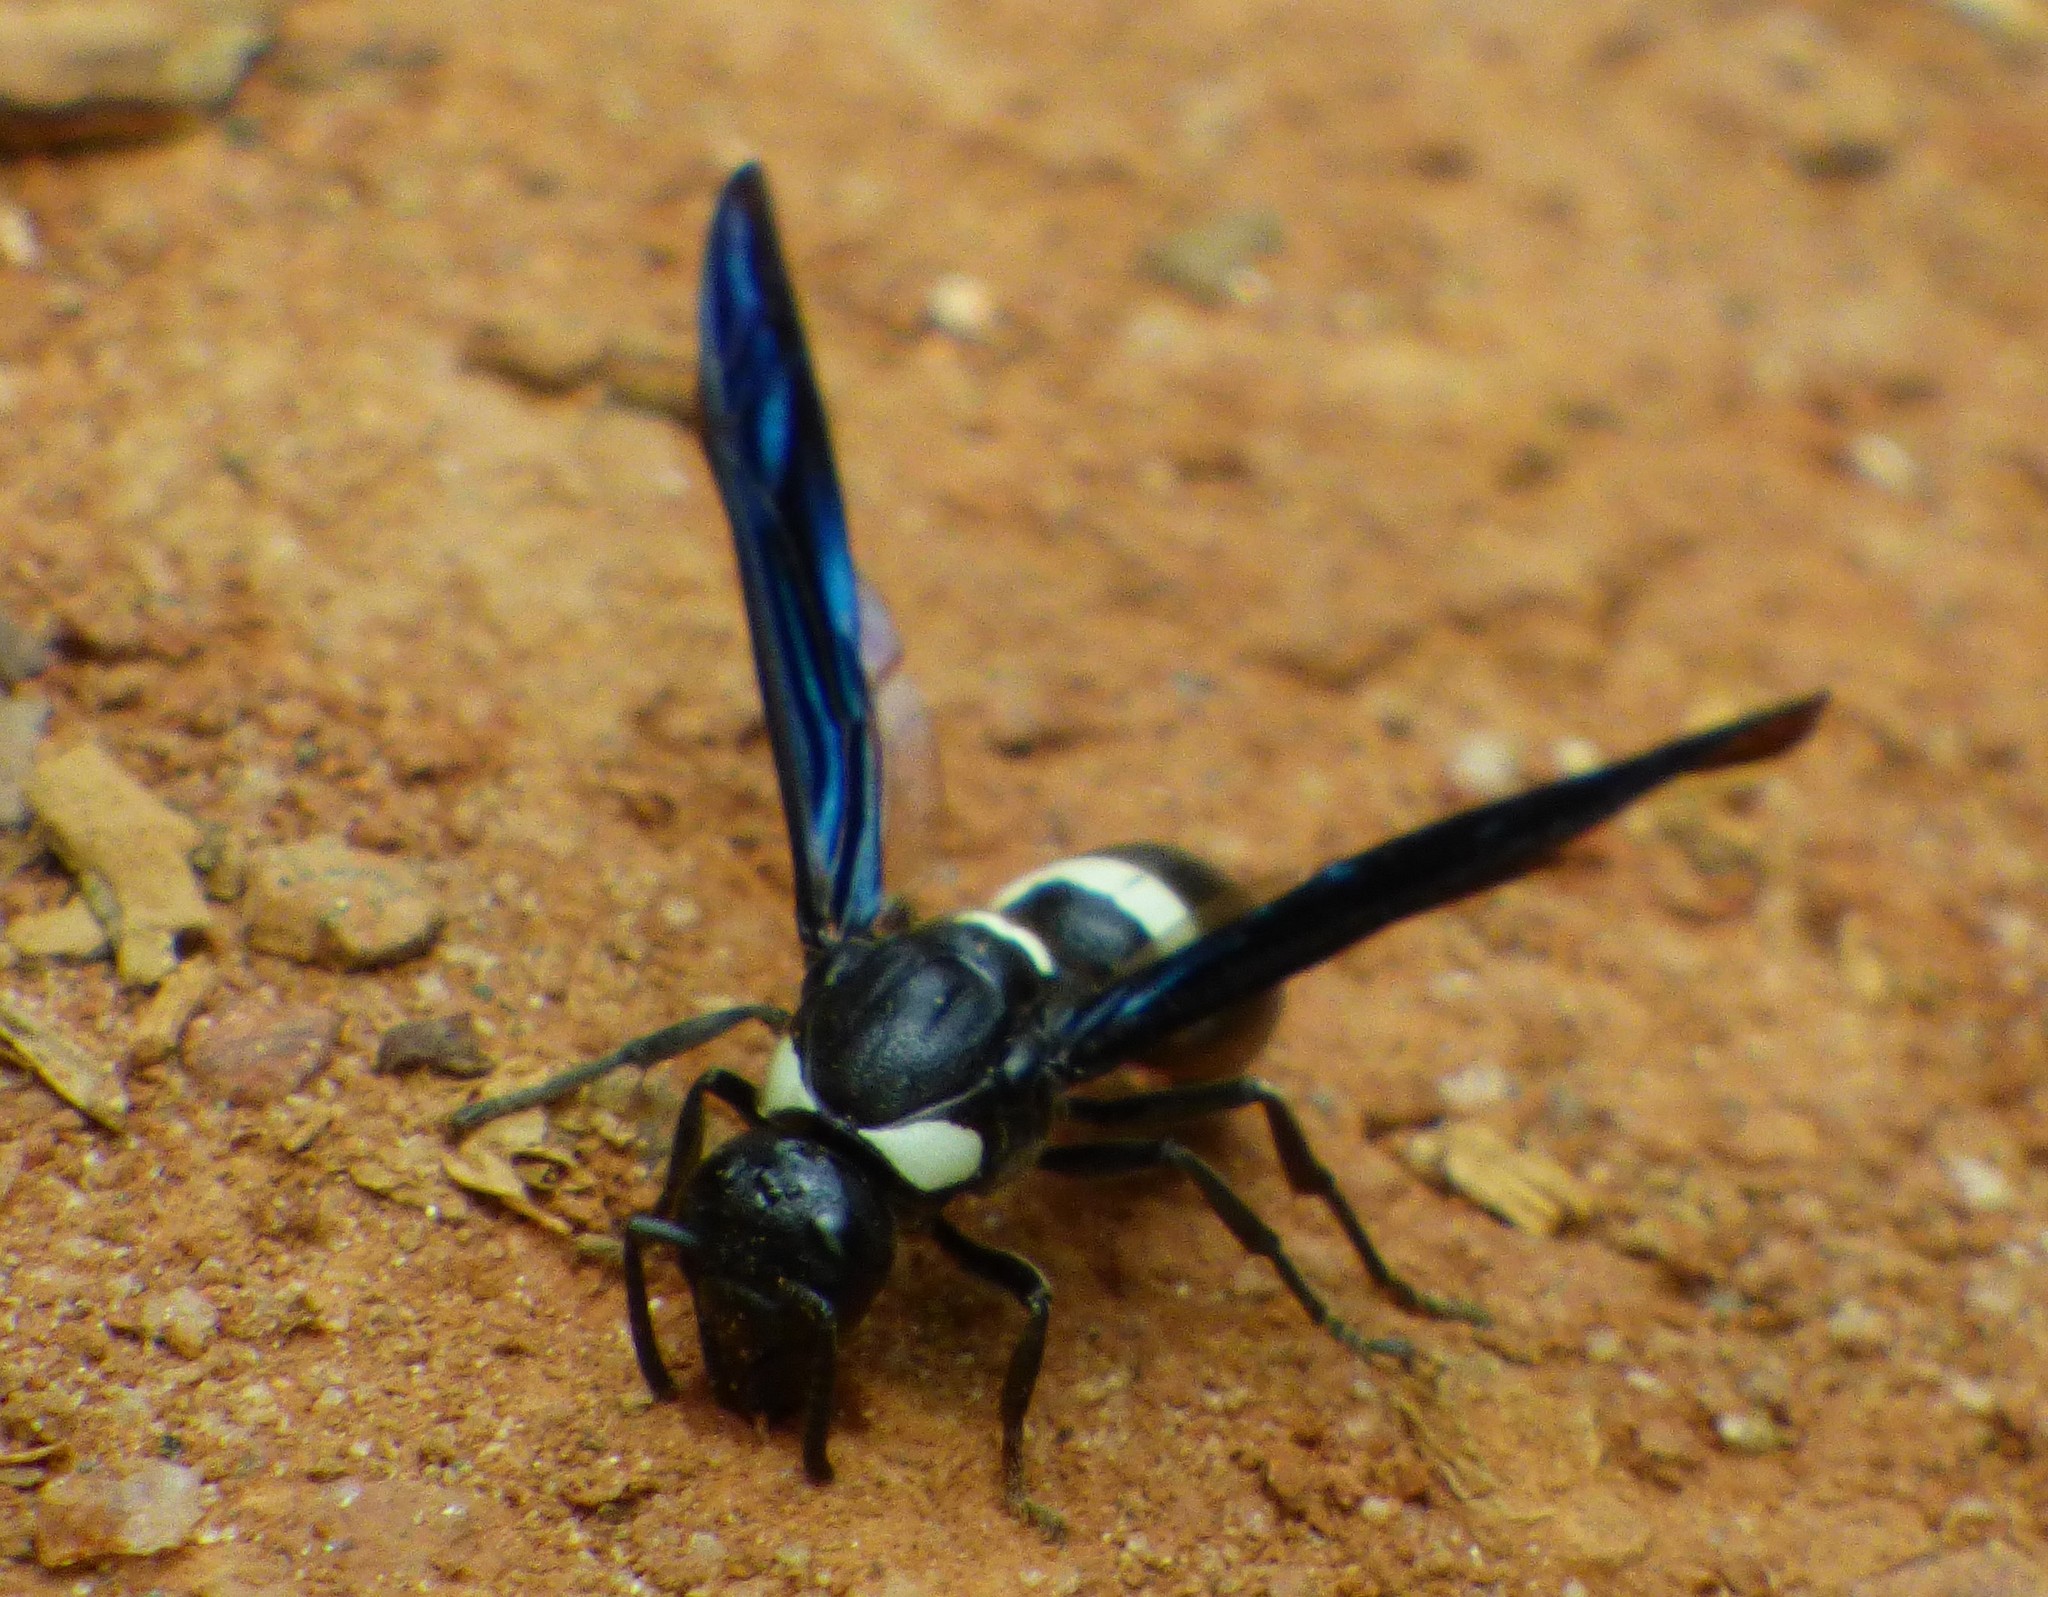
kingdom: Animalia
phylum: Arthropoda
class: Insecta
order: Hymenoptera
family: Eumenidae
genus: Monobia
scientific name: Monobia quadridens
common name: Four-toothed mason wasp
